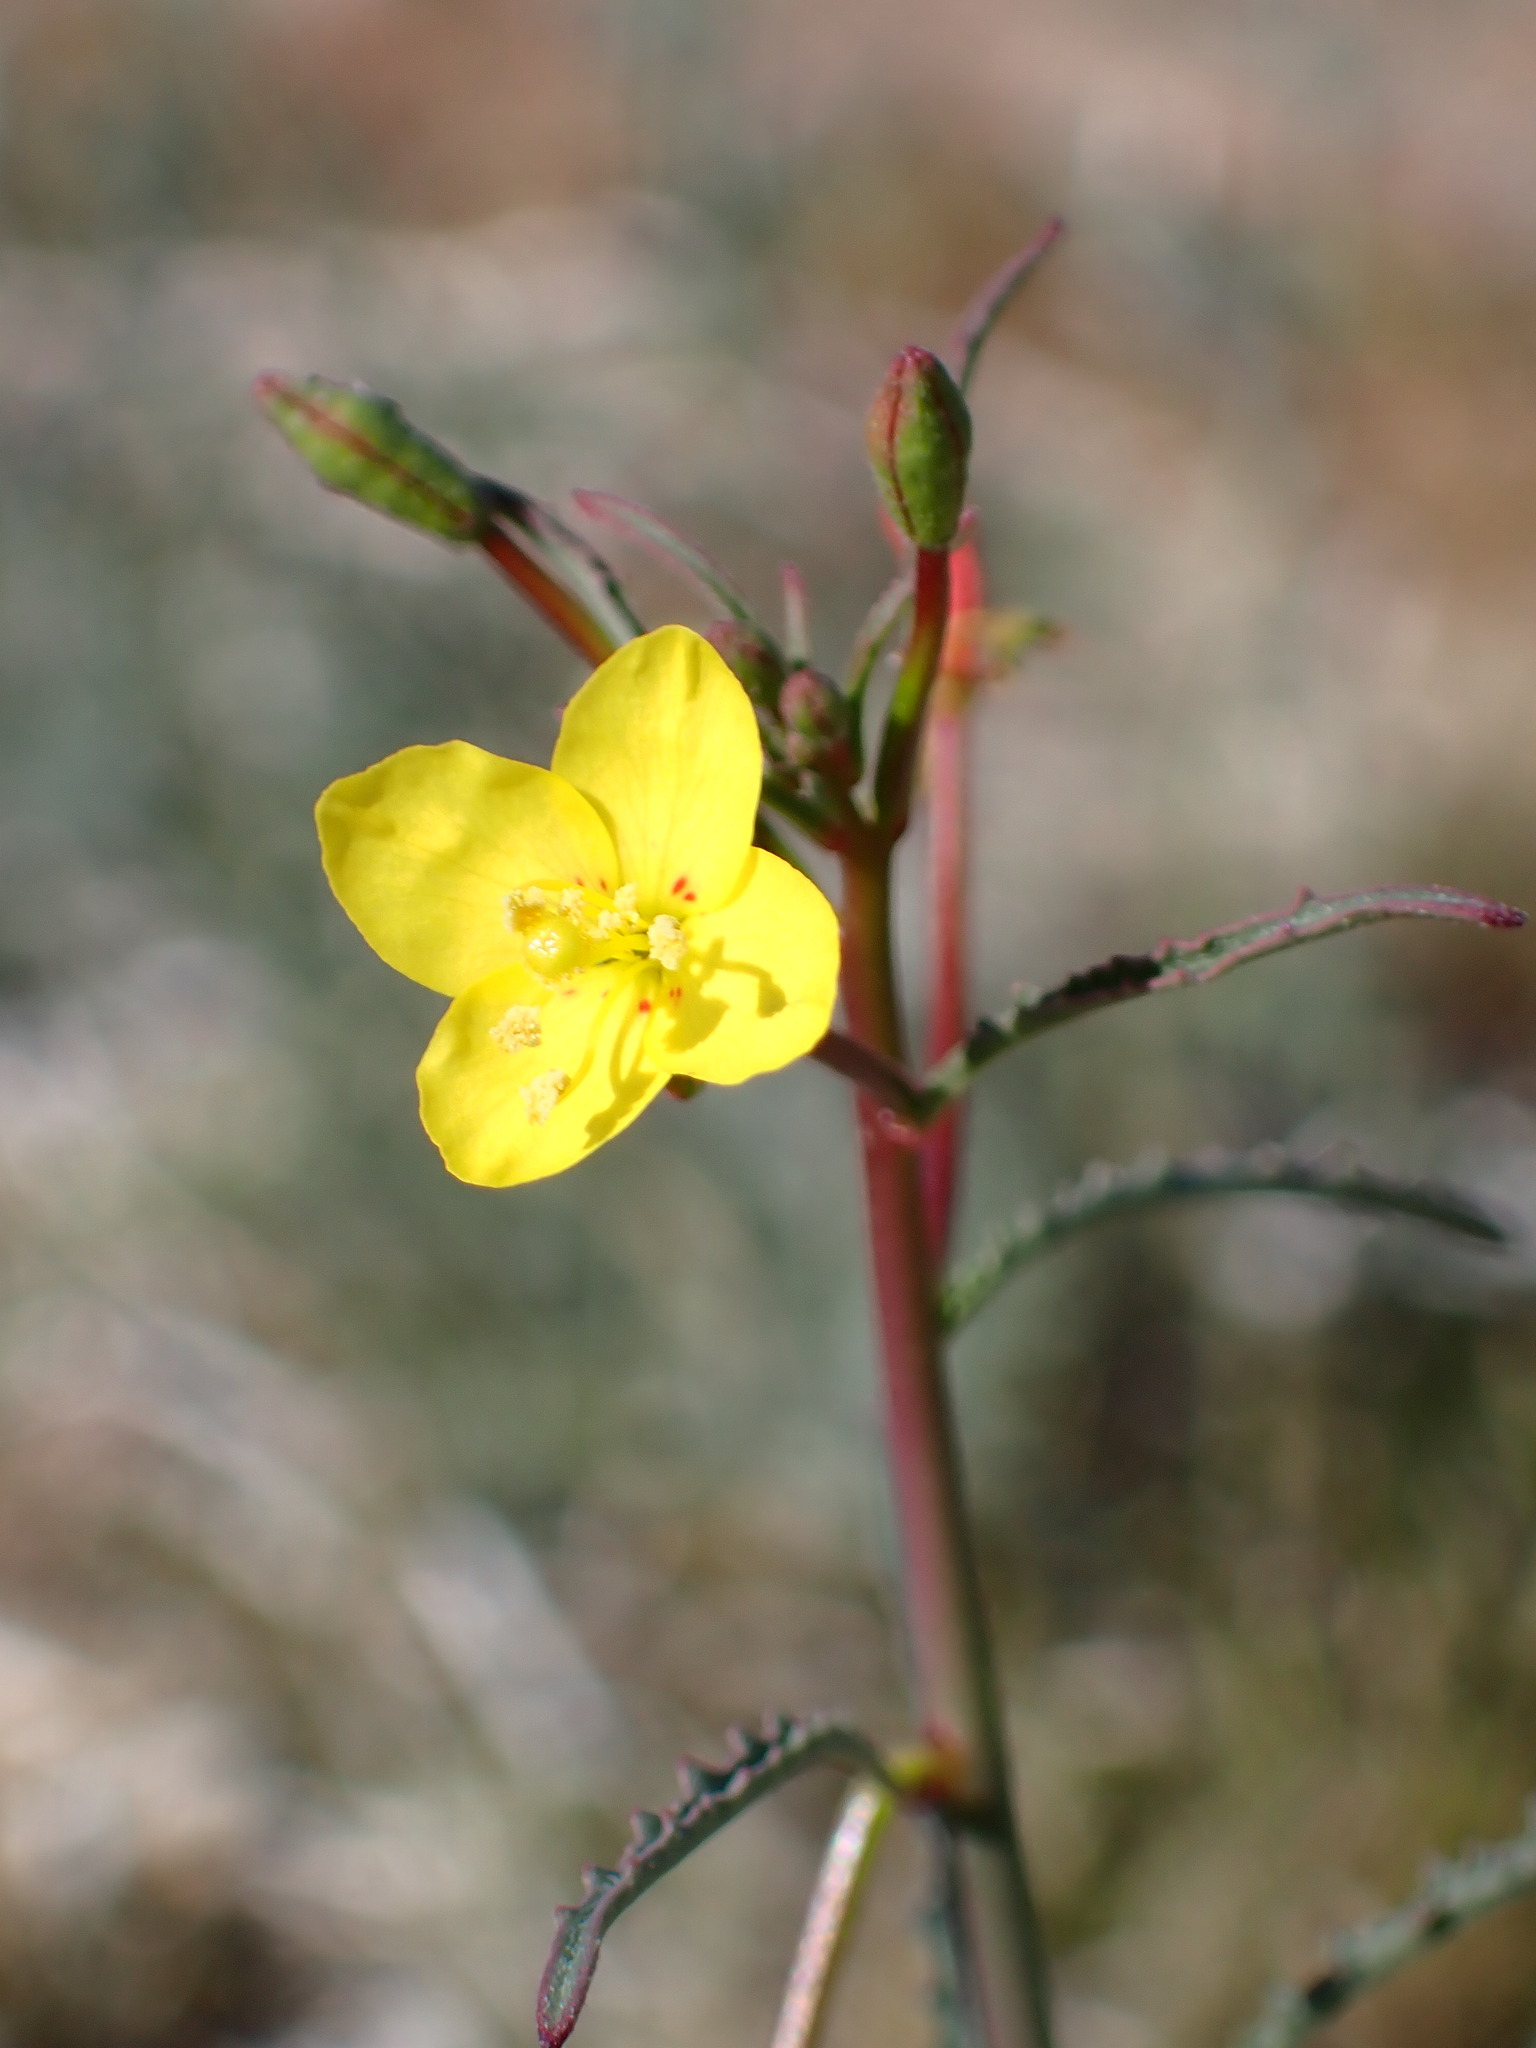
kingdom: Plantae
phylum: Tracheophyta
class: Magnoliopsida
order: Myrtales
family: Onagraceae
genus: Eulobus
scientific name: Eulobus californicus
